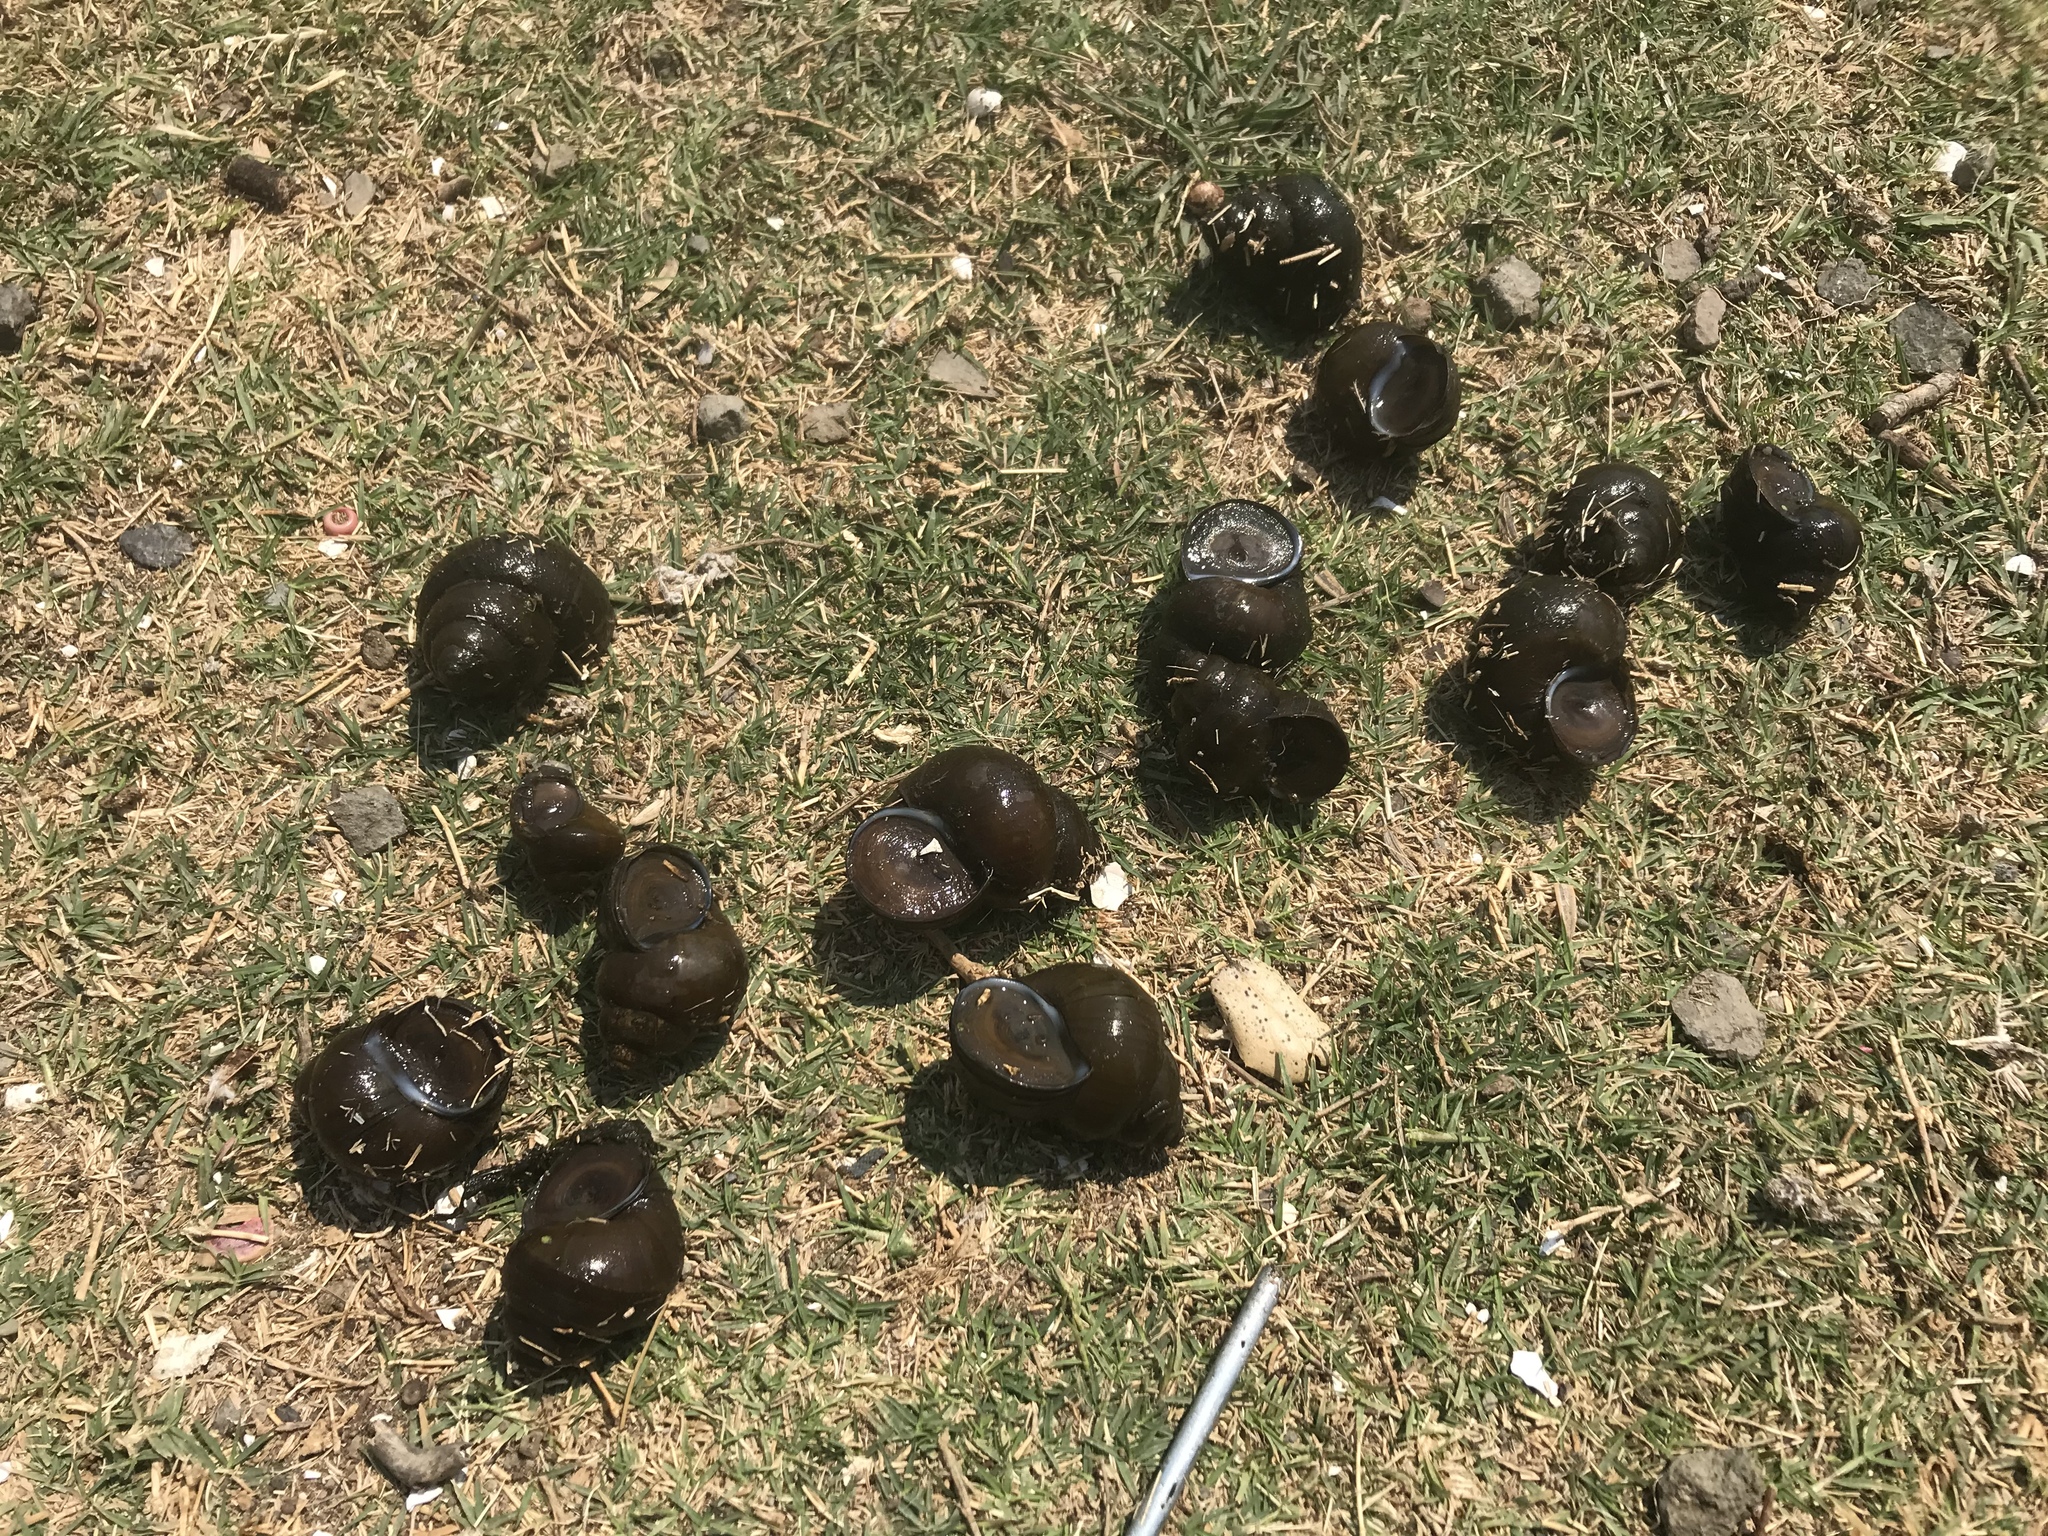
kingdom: Animalia
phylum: Mollusca
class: Gastropoda
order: Architaenioglossa
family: Viviparidae
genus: Cipangopaludina
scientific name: Cipangopaludina chinensis
